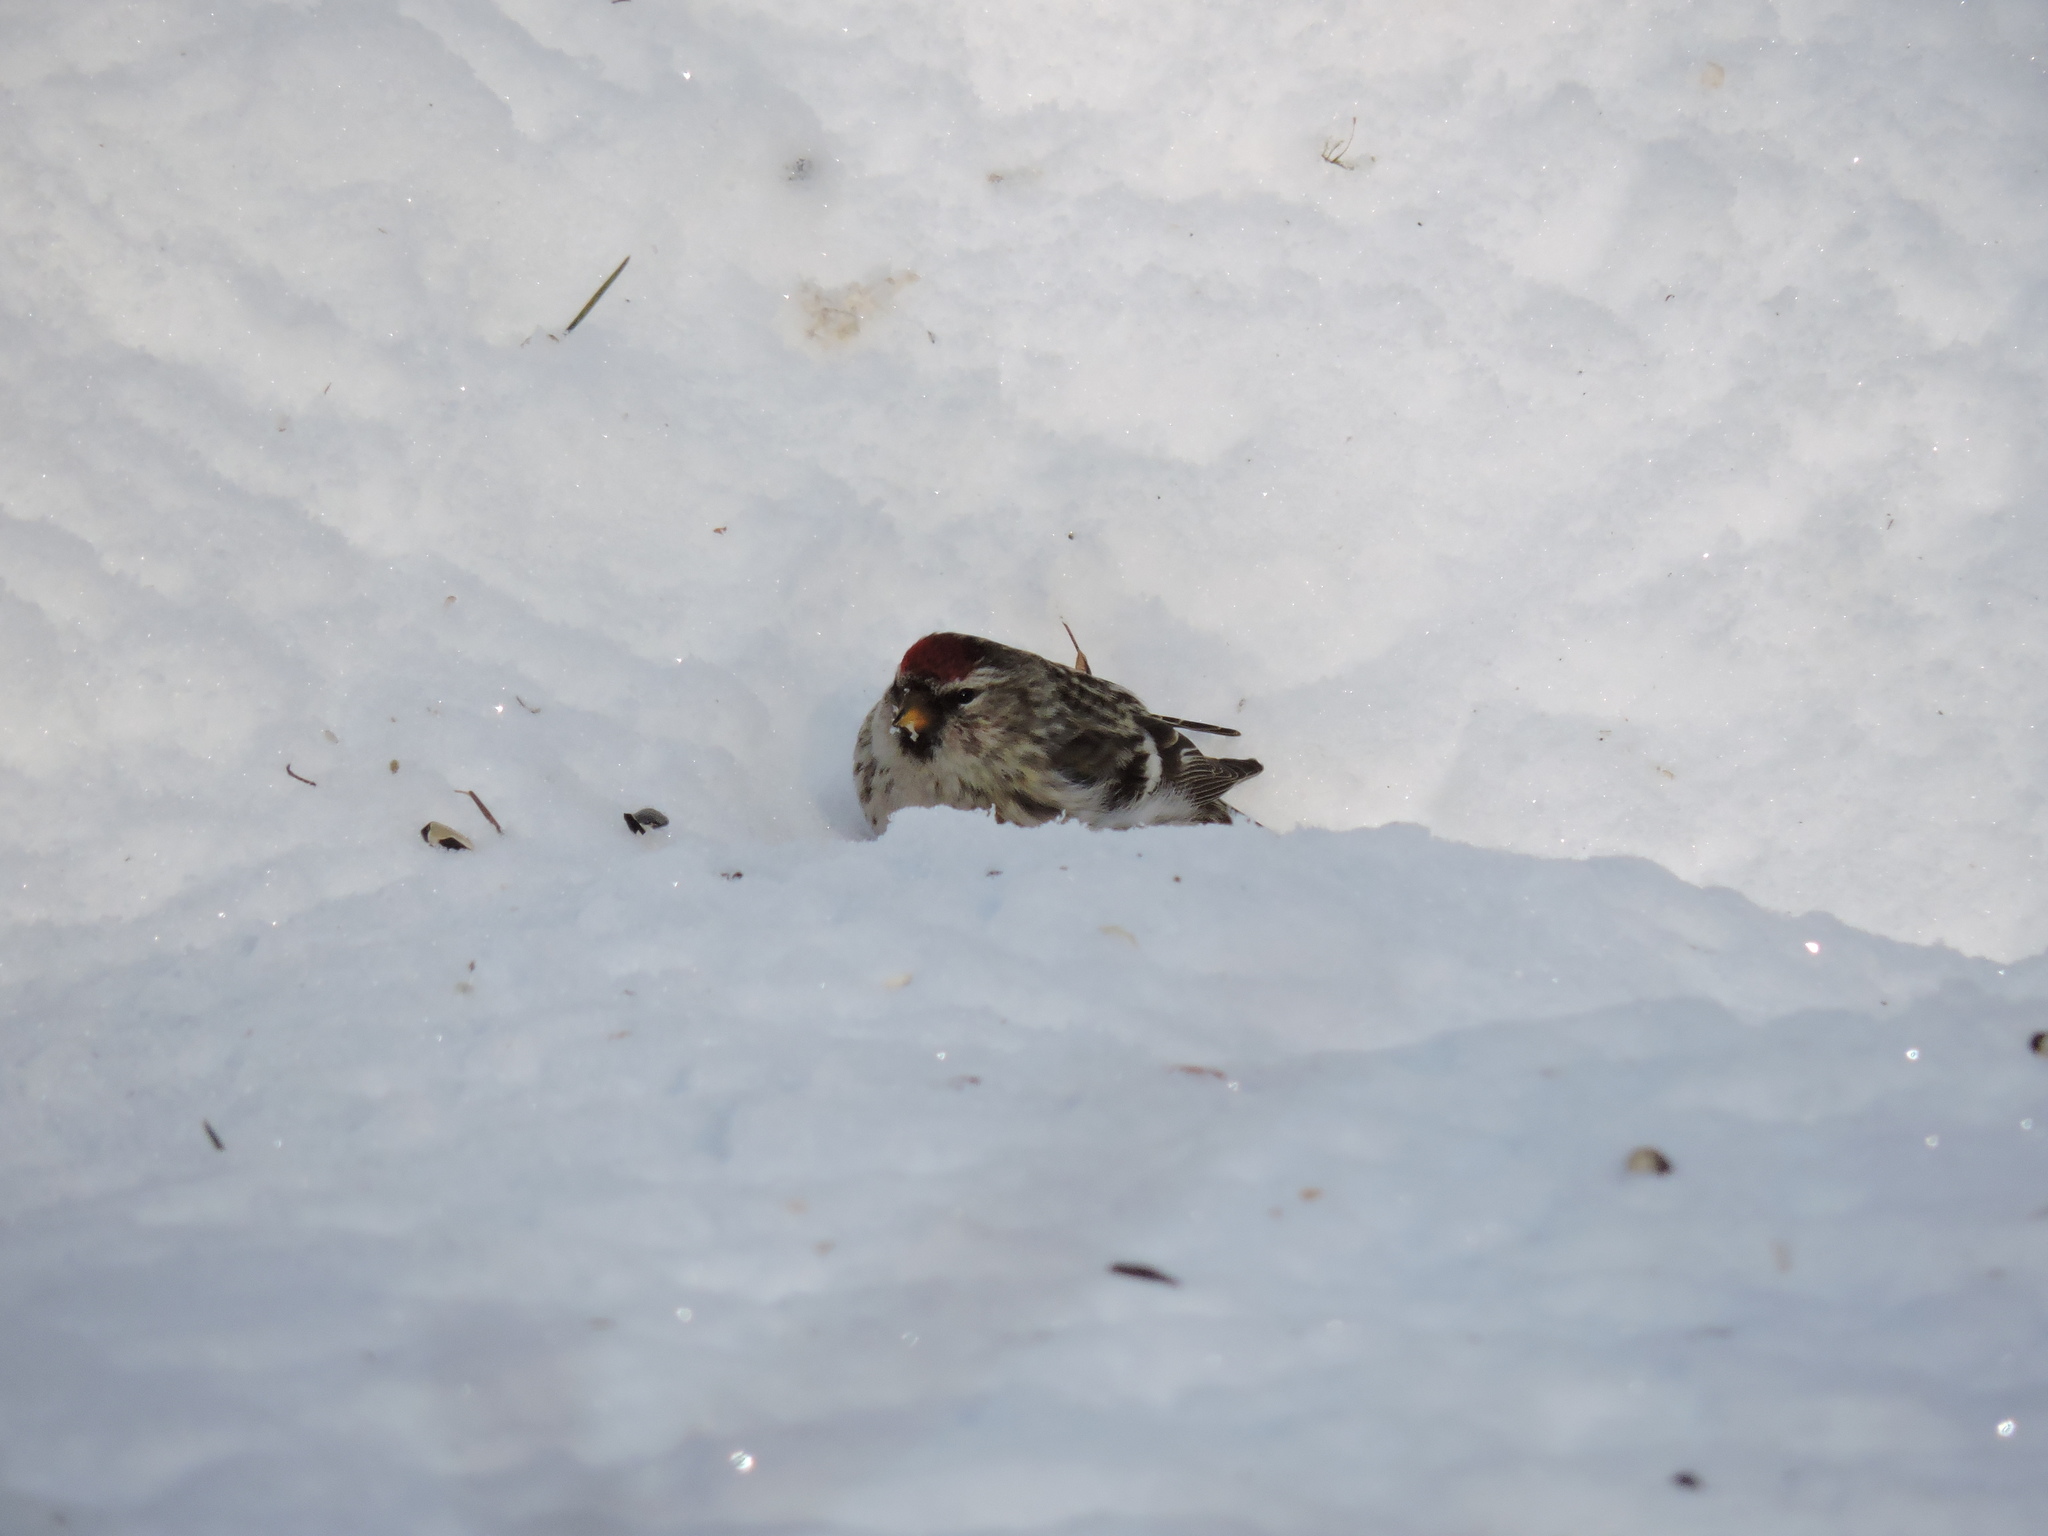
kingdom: Animalia
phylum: Chordata
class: Aves
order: Passeriformes
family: Fringillidae
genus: Acanthis
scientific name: Acanthis flammea
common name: Common redpoll
